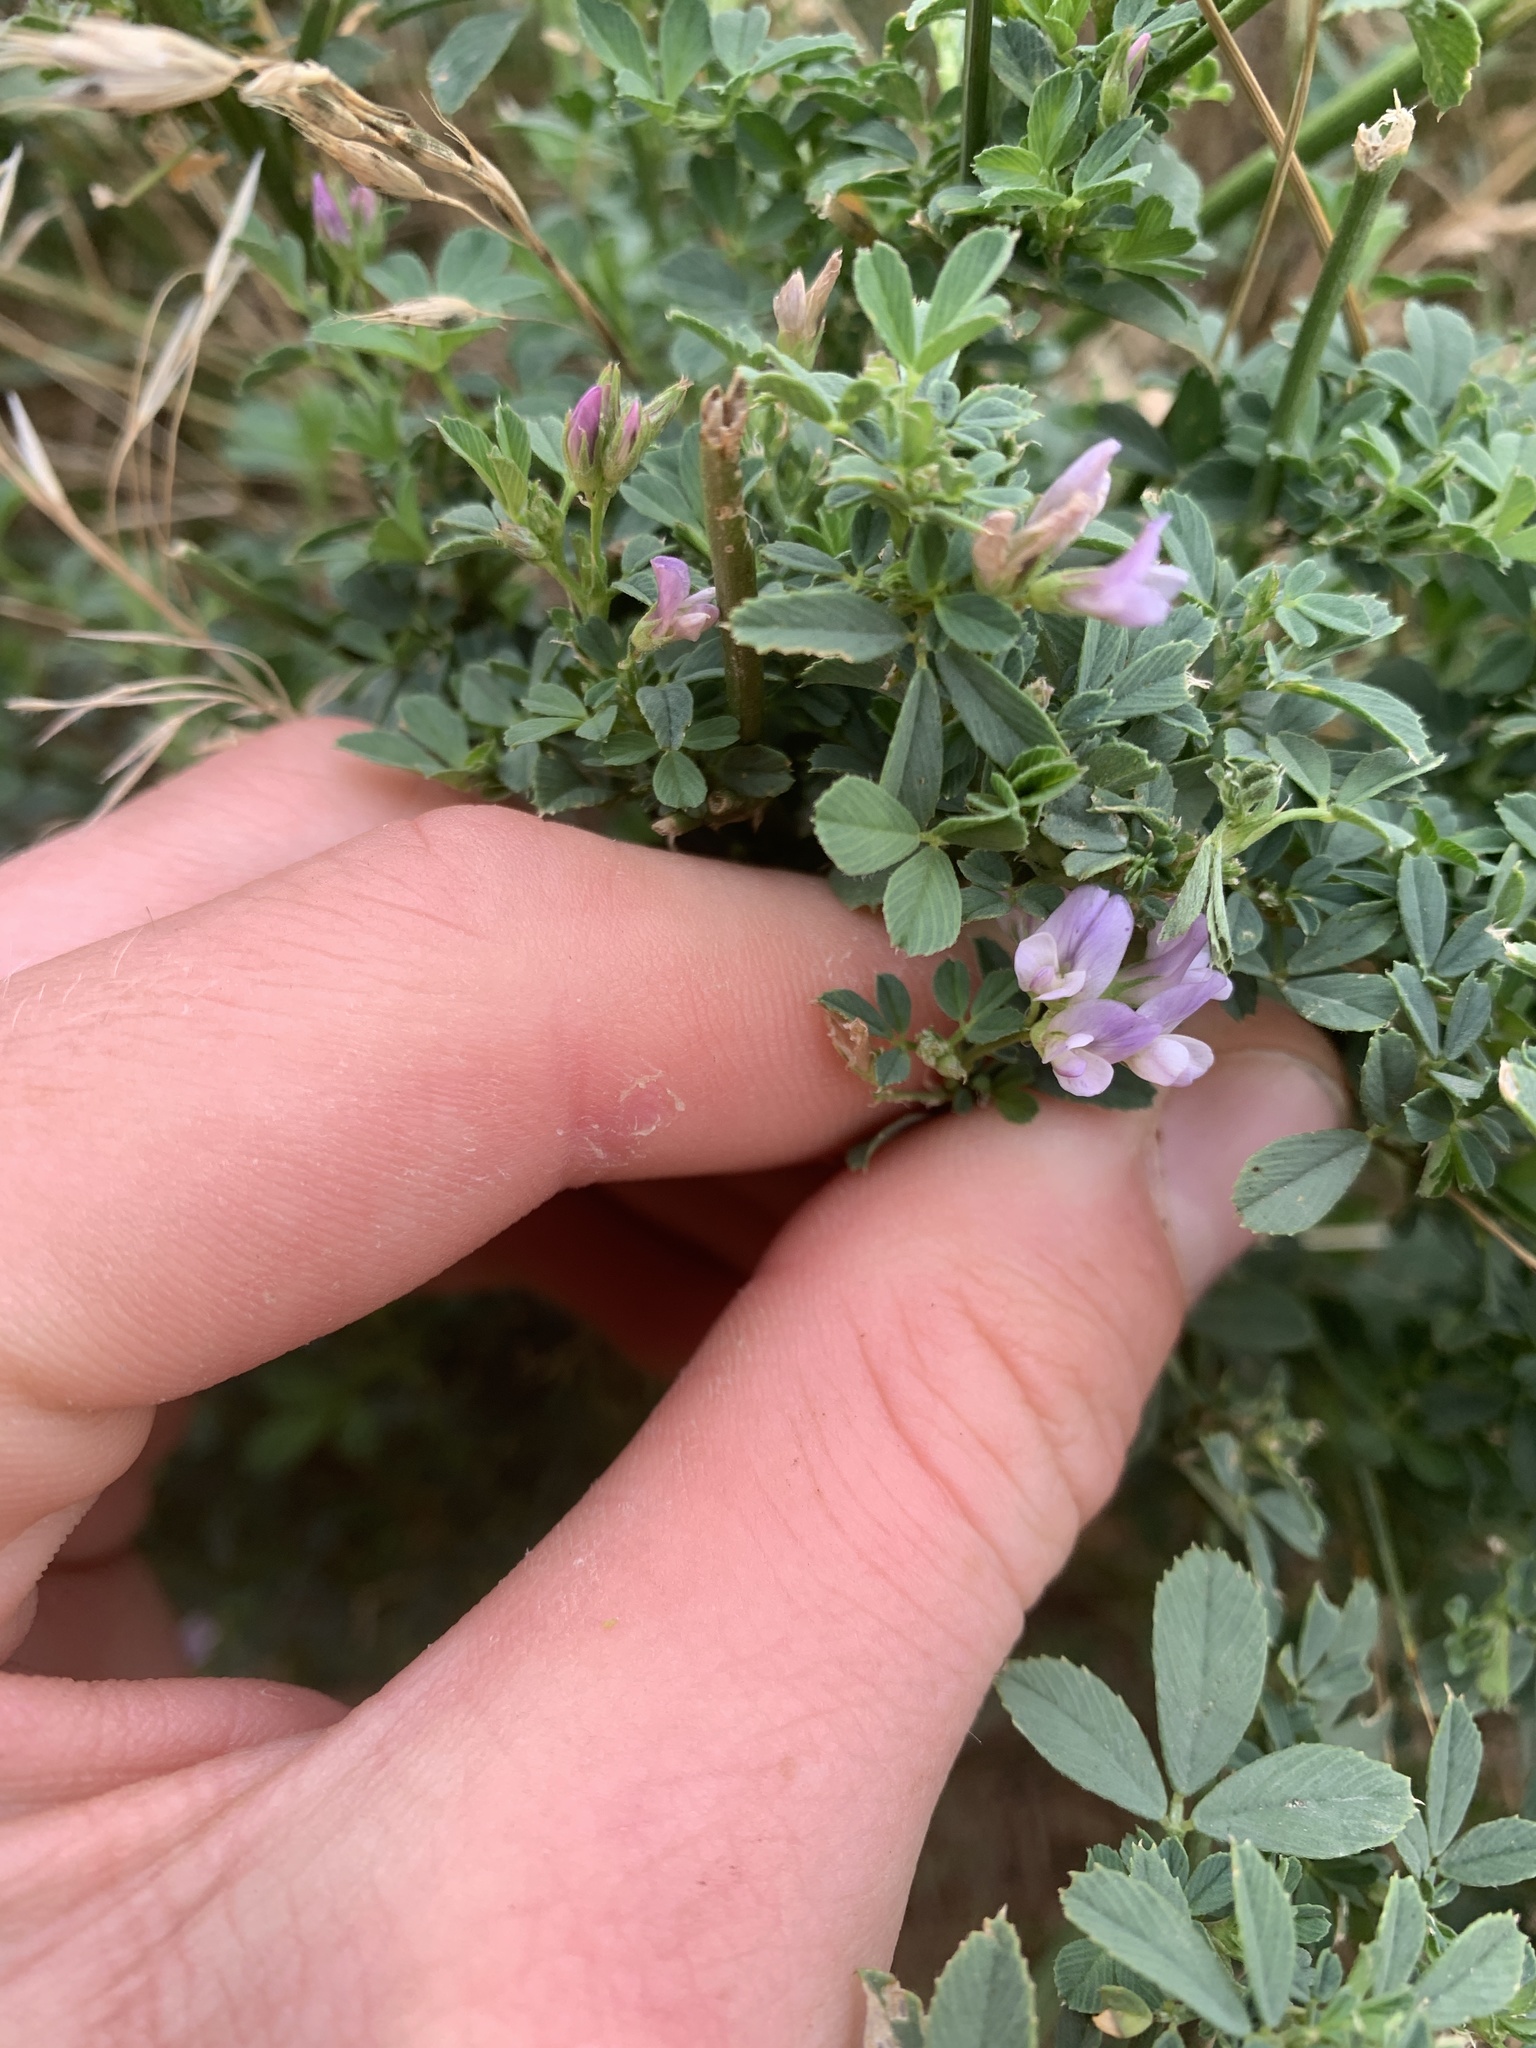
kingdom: Plantae
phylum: Tracheophyta
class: Magnoliopsida
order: Fabales
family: Fabaceae
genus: Medicago
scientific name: Medicago sativa
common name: Alfalfa
